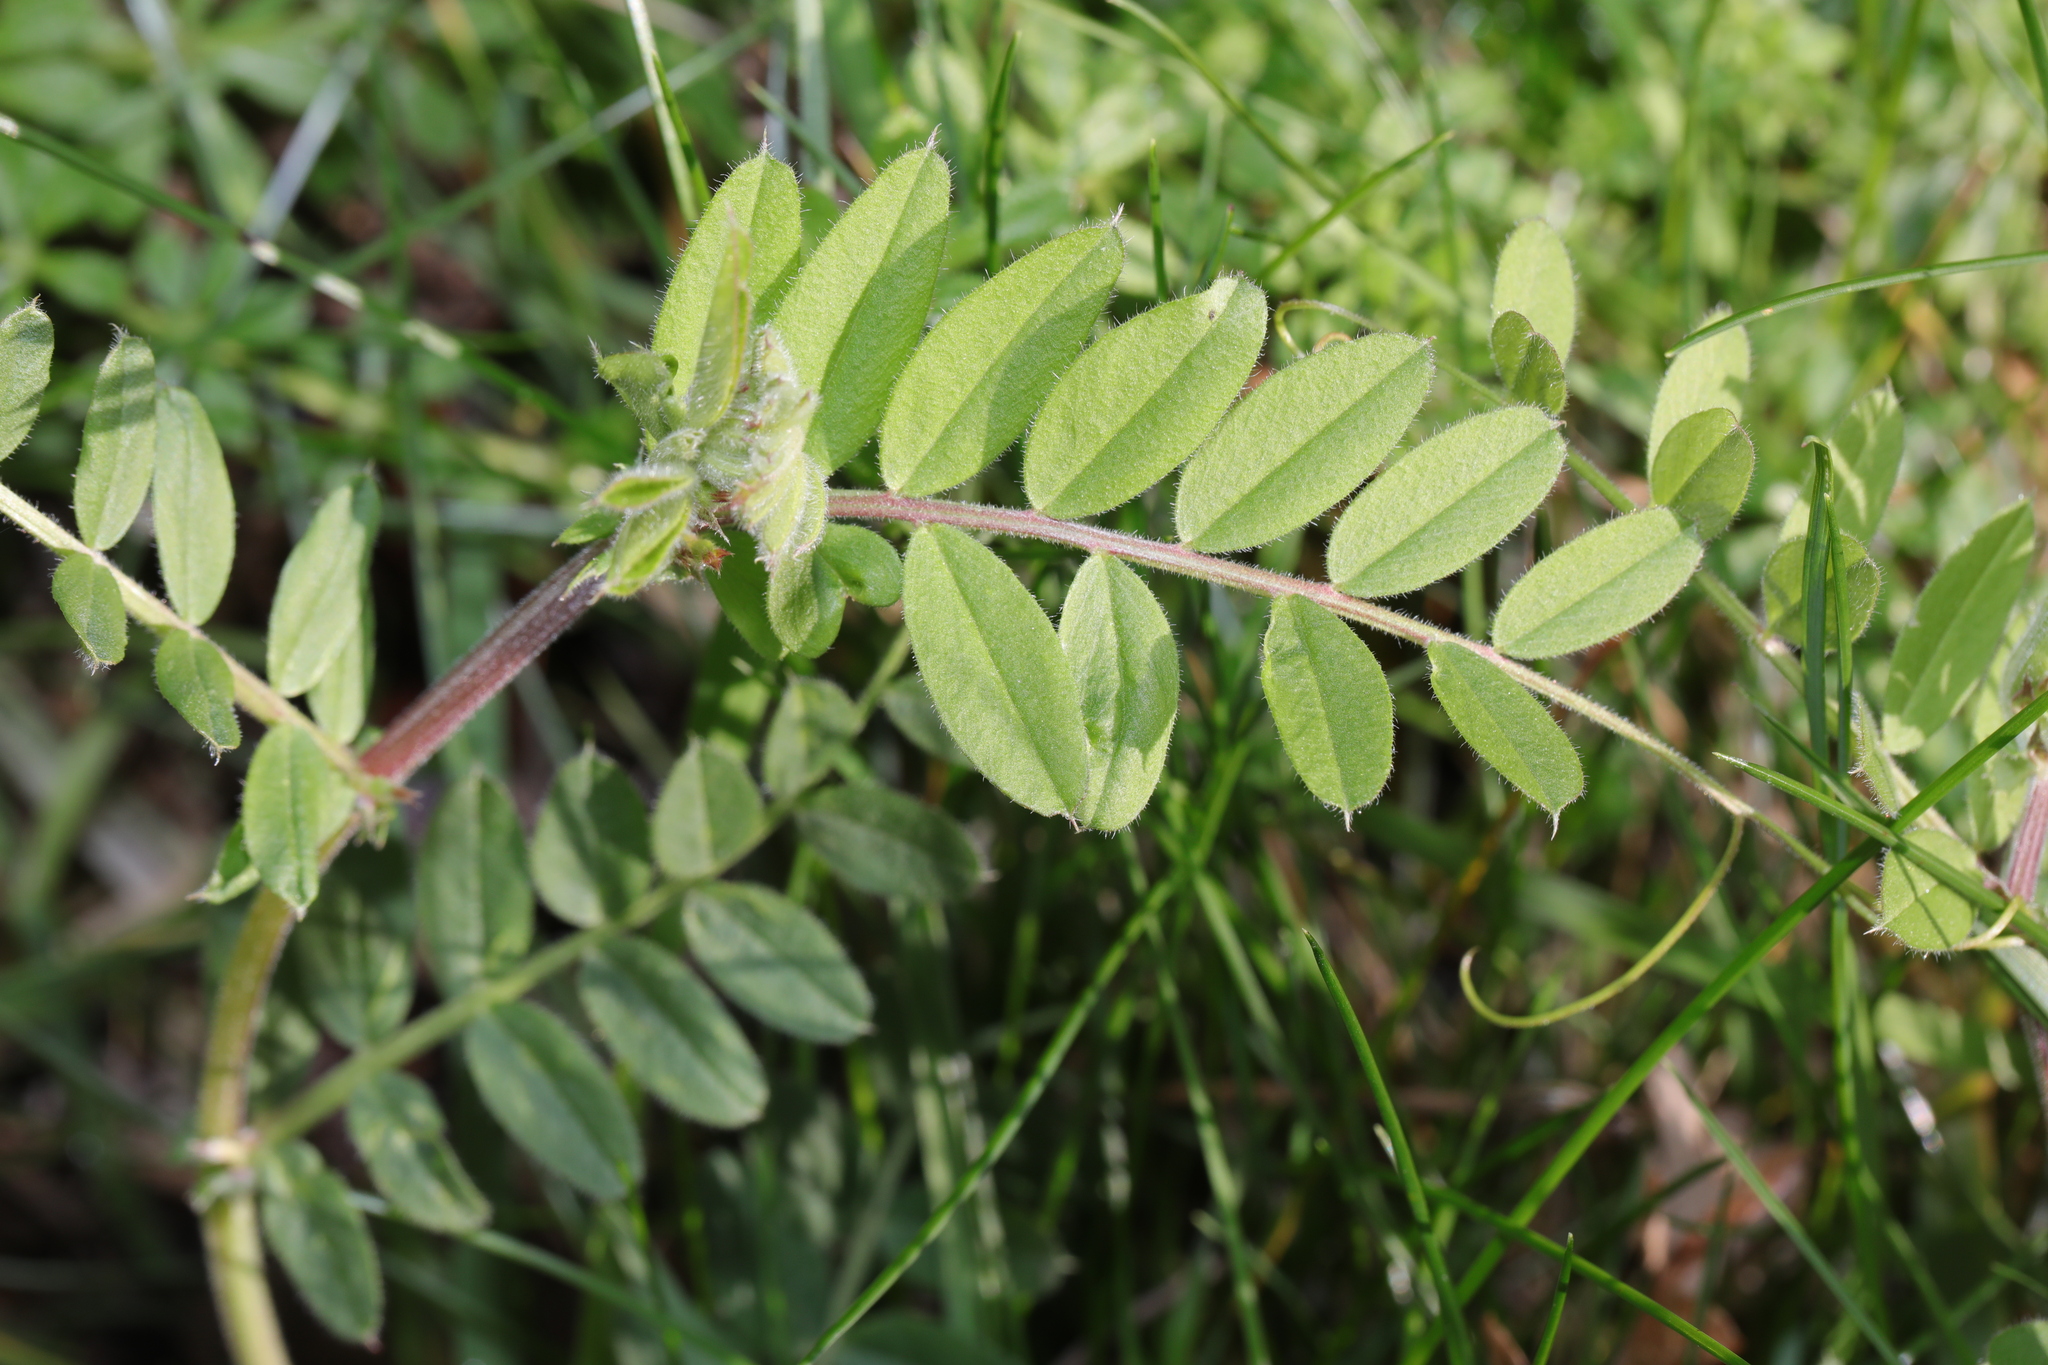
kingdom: Plantae
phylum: Tracheophyta
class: Magnoliopsida
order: Fabales
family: Fabaceae
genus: Vicia
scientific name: Vicia sativa
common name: Garden vetch
